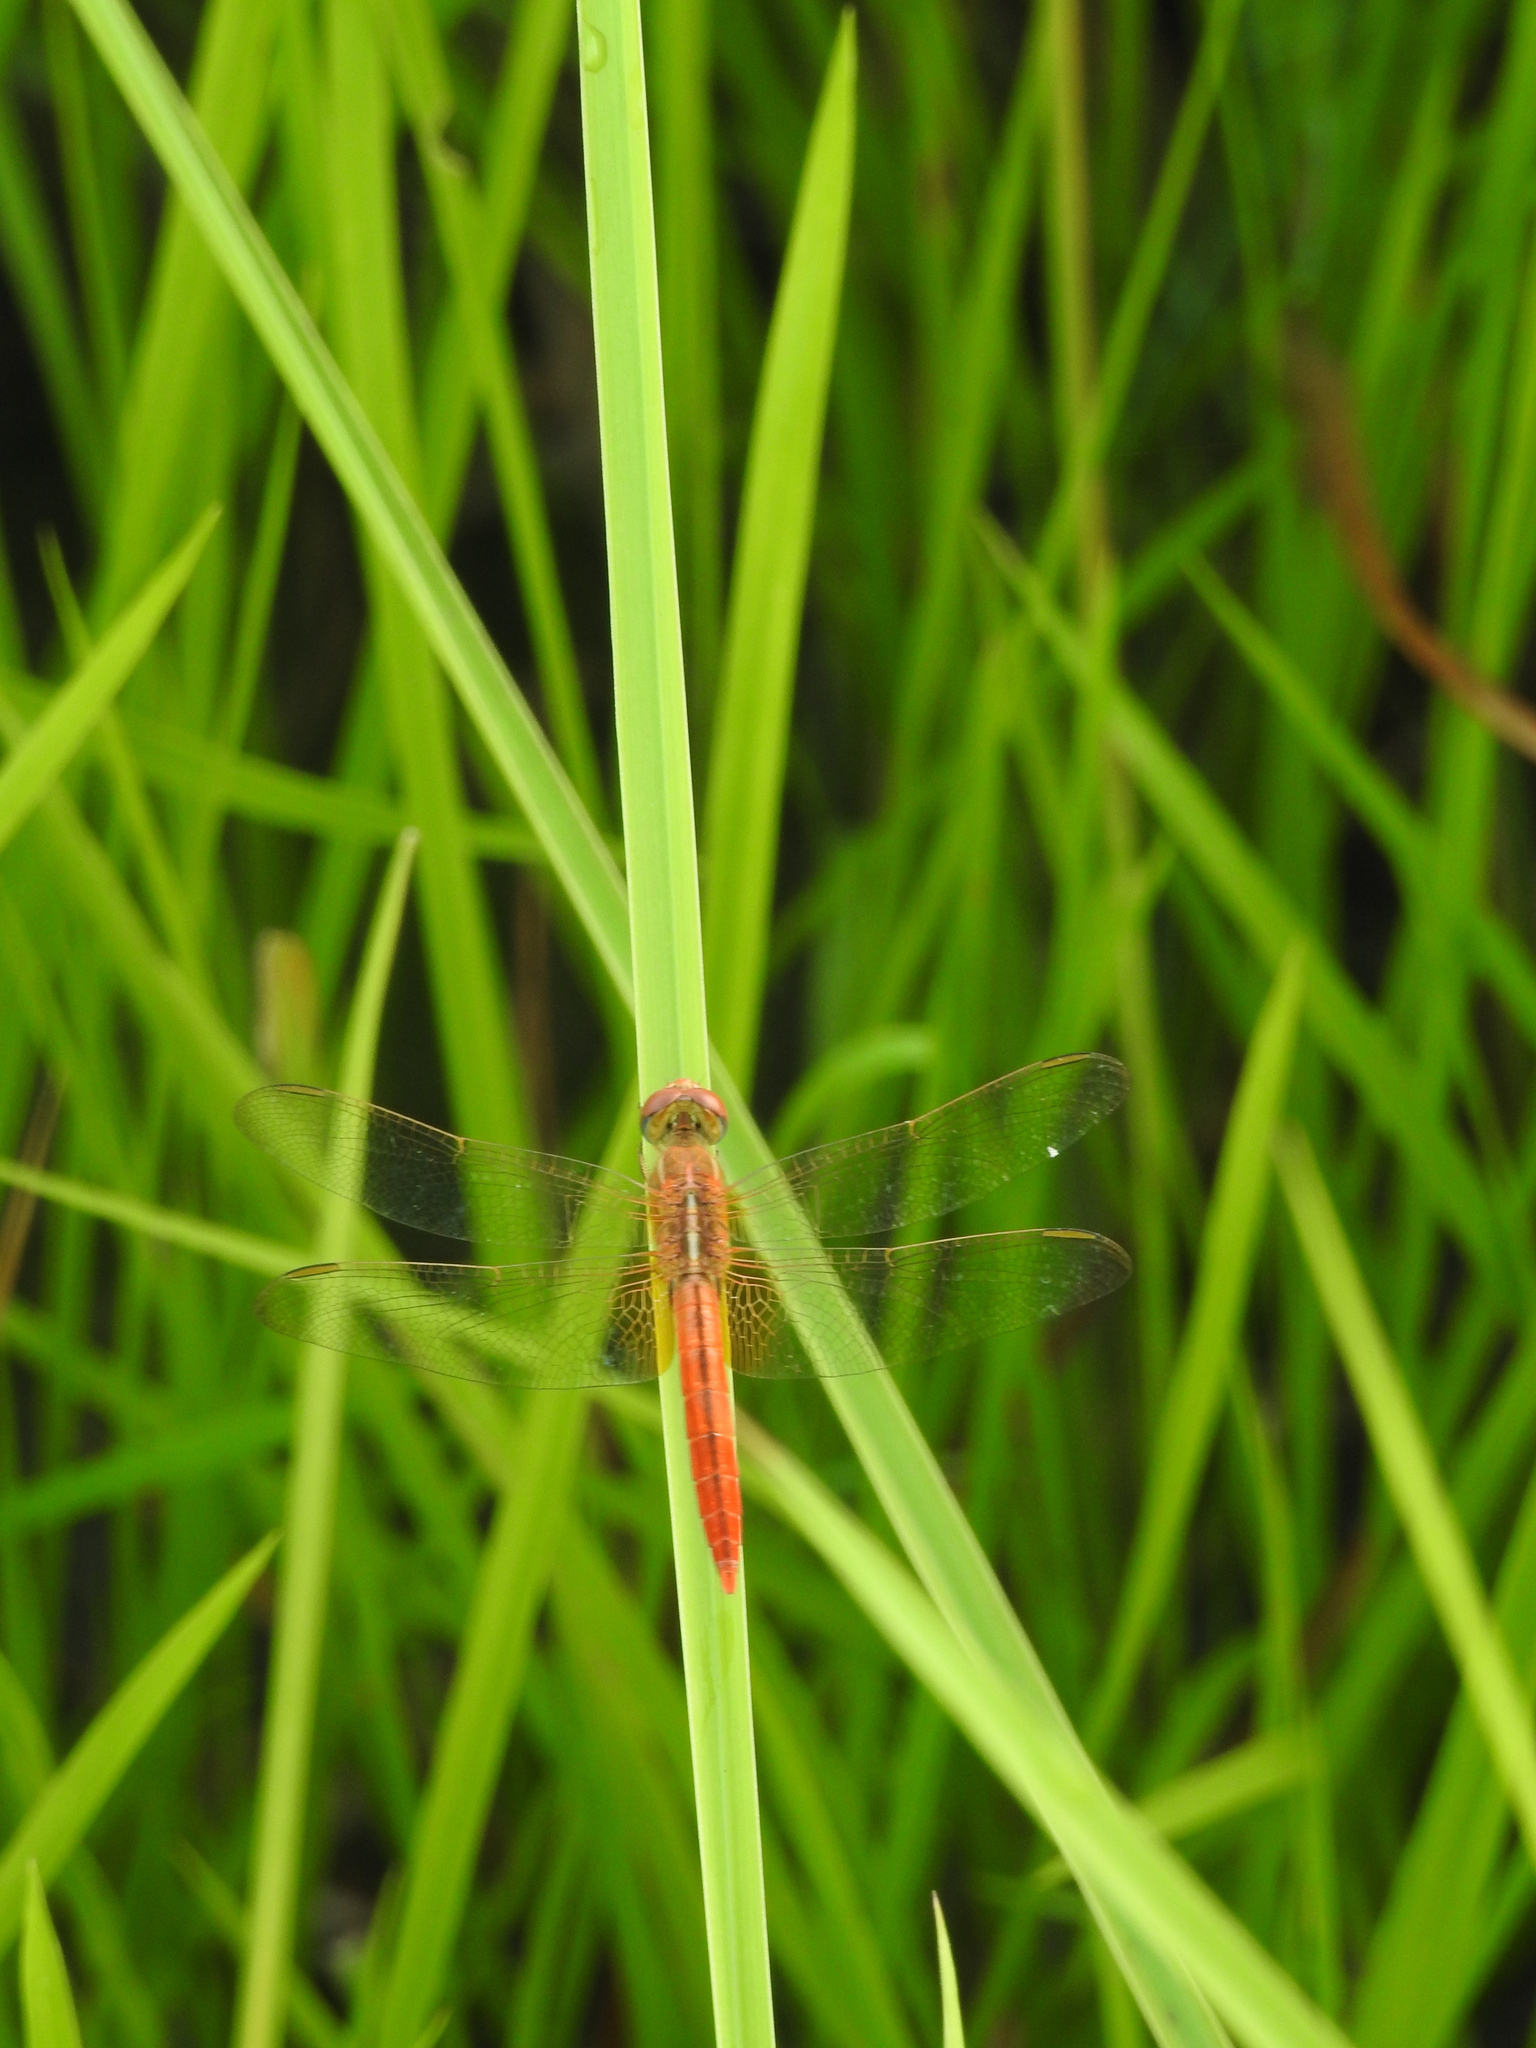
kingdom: Animalia
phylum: Arthropoda
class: Insecta
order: Odonata
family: Libellulidae
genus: Crocothemis
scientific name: Crocothemis servilia
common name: Scarlet skimmer
